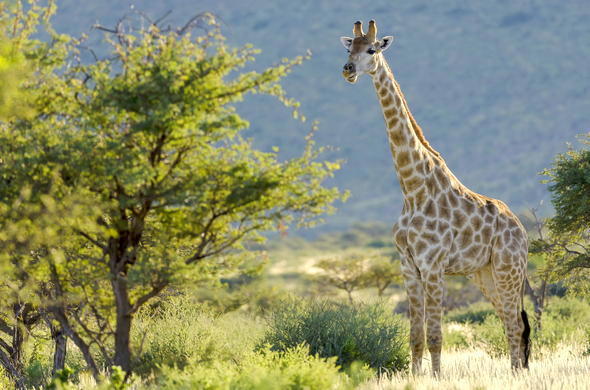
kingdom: Animalia
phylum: Chordata
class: Mammalia
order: Artiodactyla
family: Giraffidae
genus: Giraffa
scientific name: Giraffa giraffa
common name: Southern giraffe
